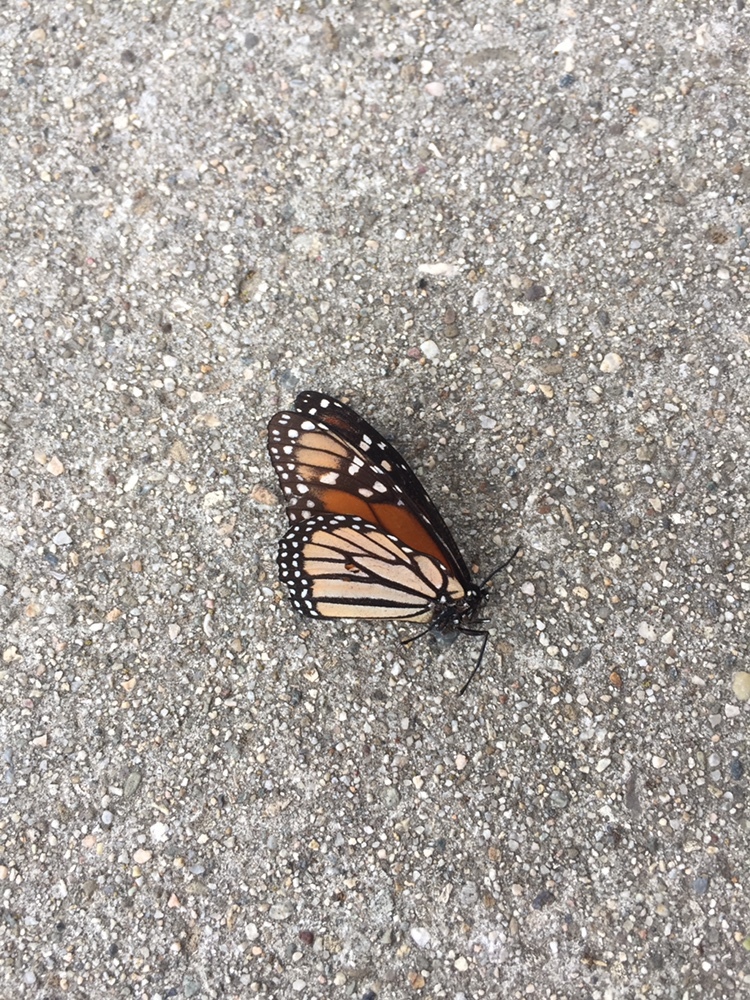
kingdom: Animalia
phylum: Arthropoda
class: Insecta
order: Lepidoptera
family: Nymphalidae
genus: Danaus
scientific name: Danaus plexippus
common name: Monarch
